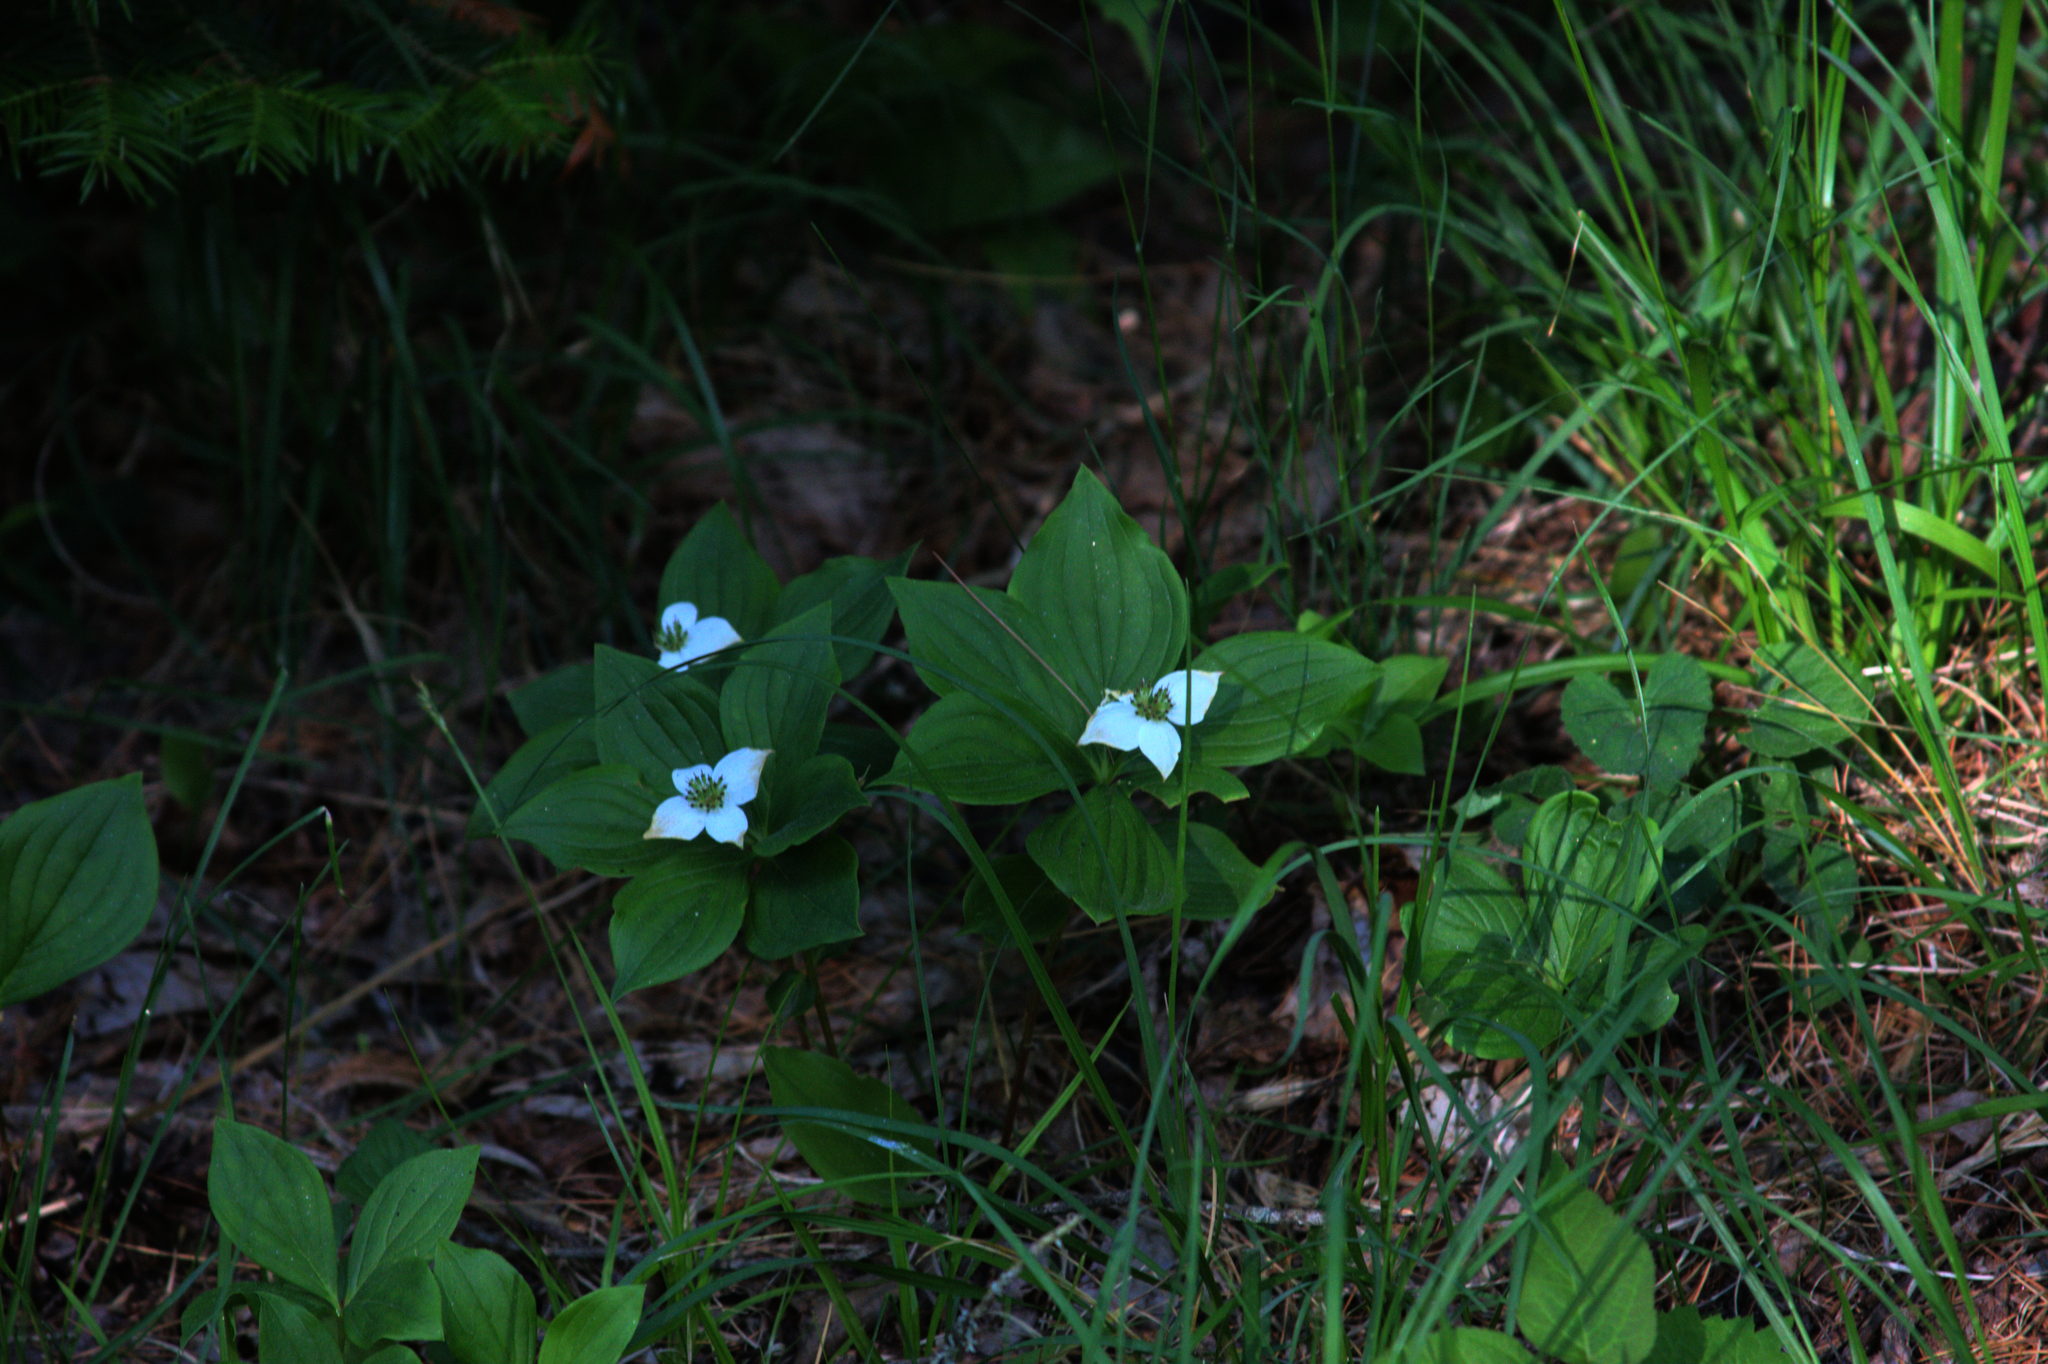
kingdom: Plantae
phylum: Tracheophyta
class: Magnoliopsida
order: Cornales
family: Cornaceae
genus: Cornus
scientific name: Cornus canadensis
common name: Creeping dogwood
